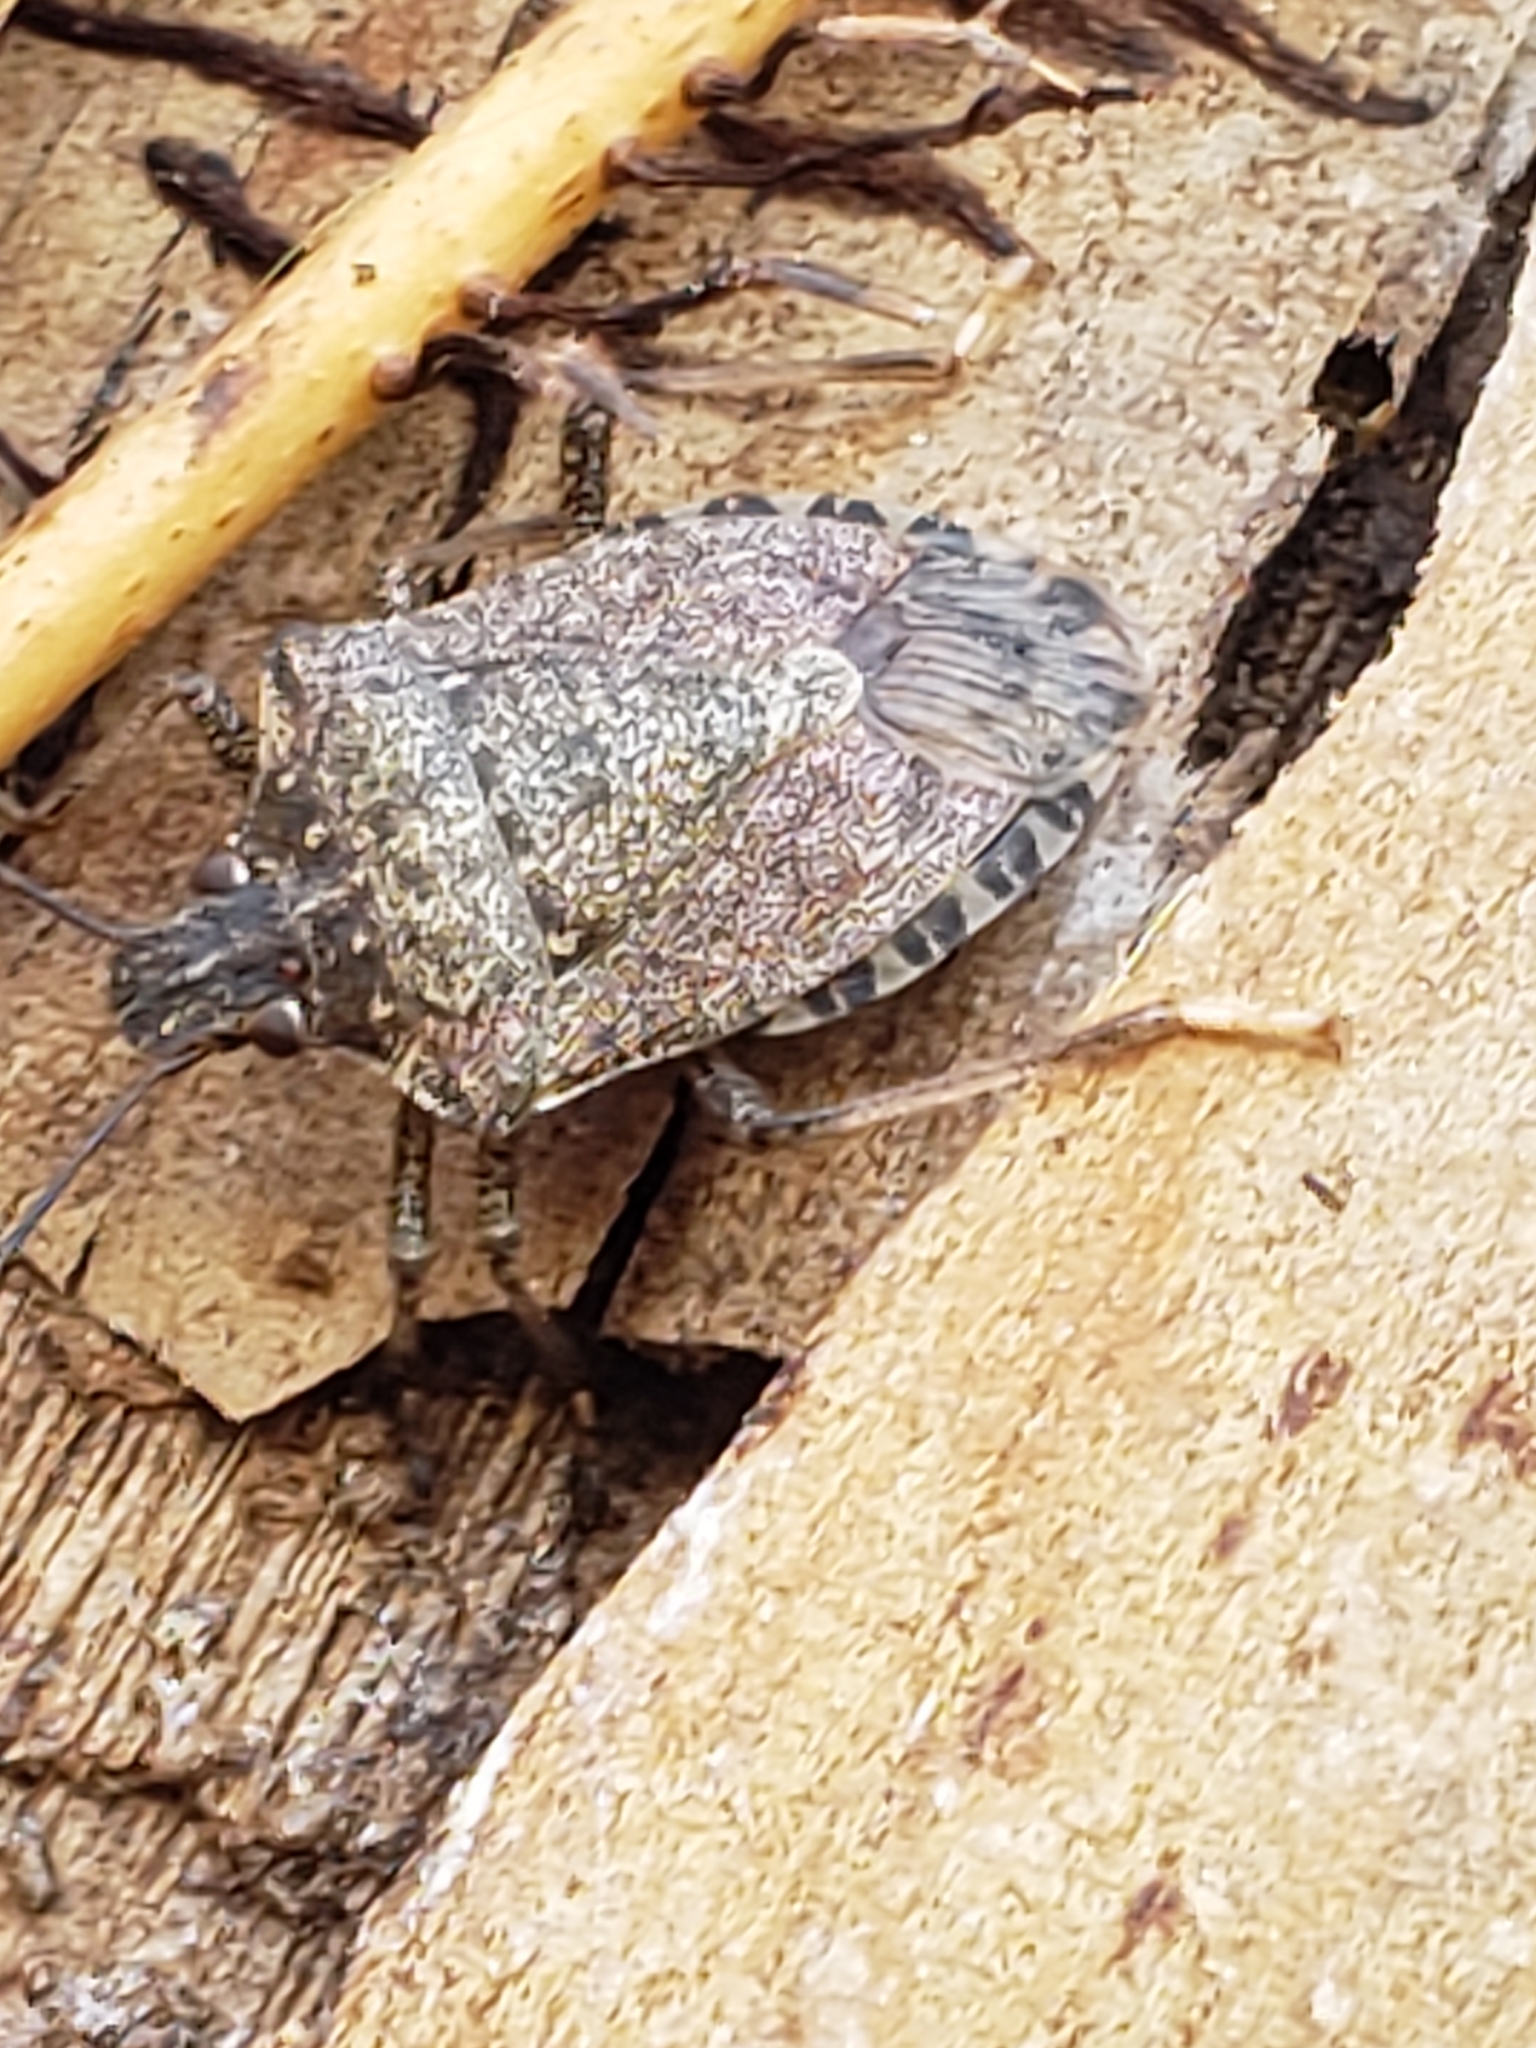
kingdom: Animalia
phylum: Arthropoda
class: Insecta
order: Hemiptera
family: Pentatomidae
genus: Halyomorpha
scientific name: Halyomorpha halys
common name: Brown marmorated stink bug
